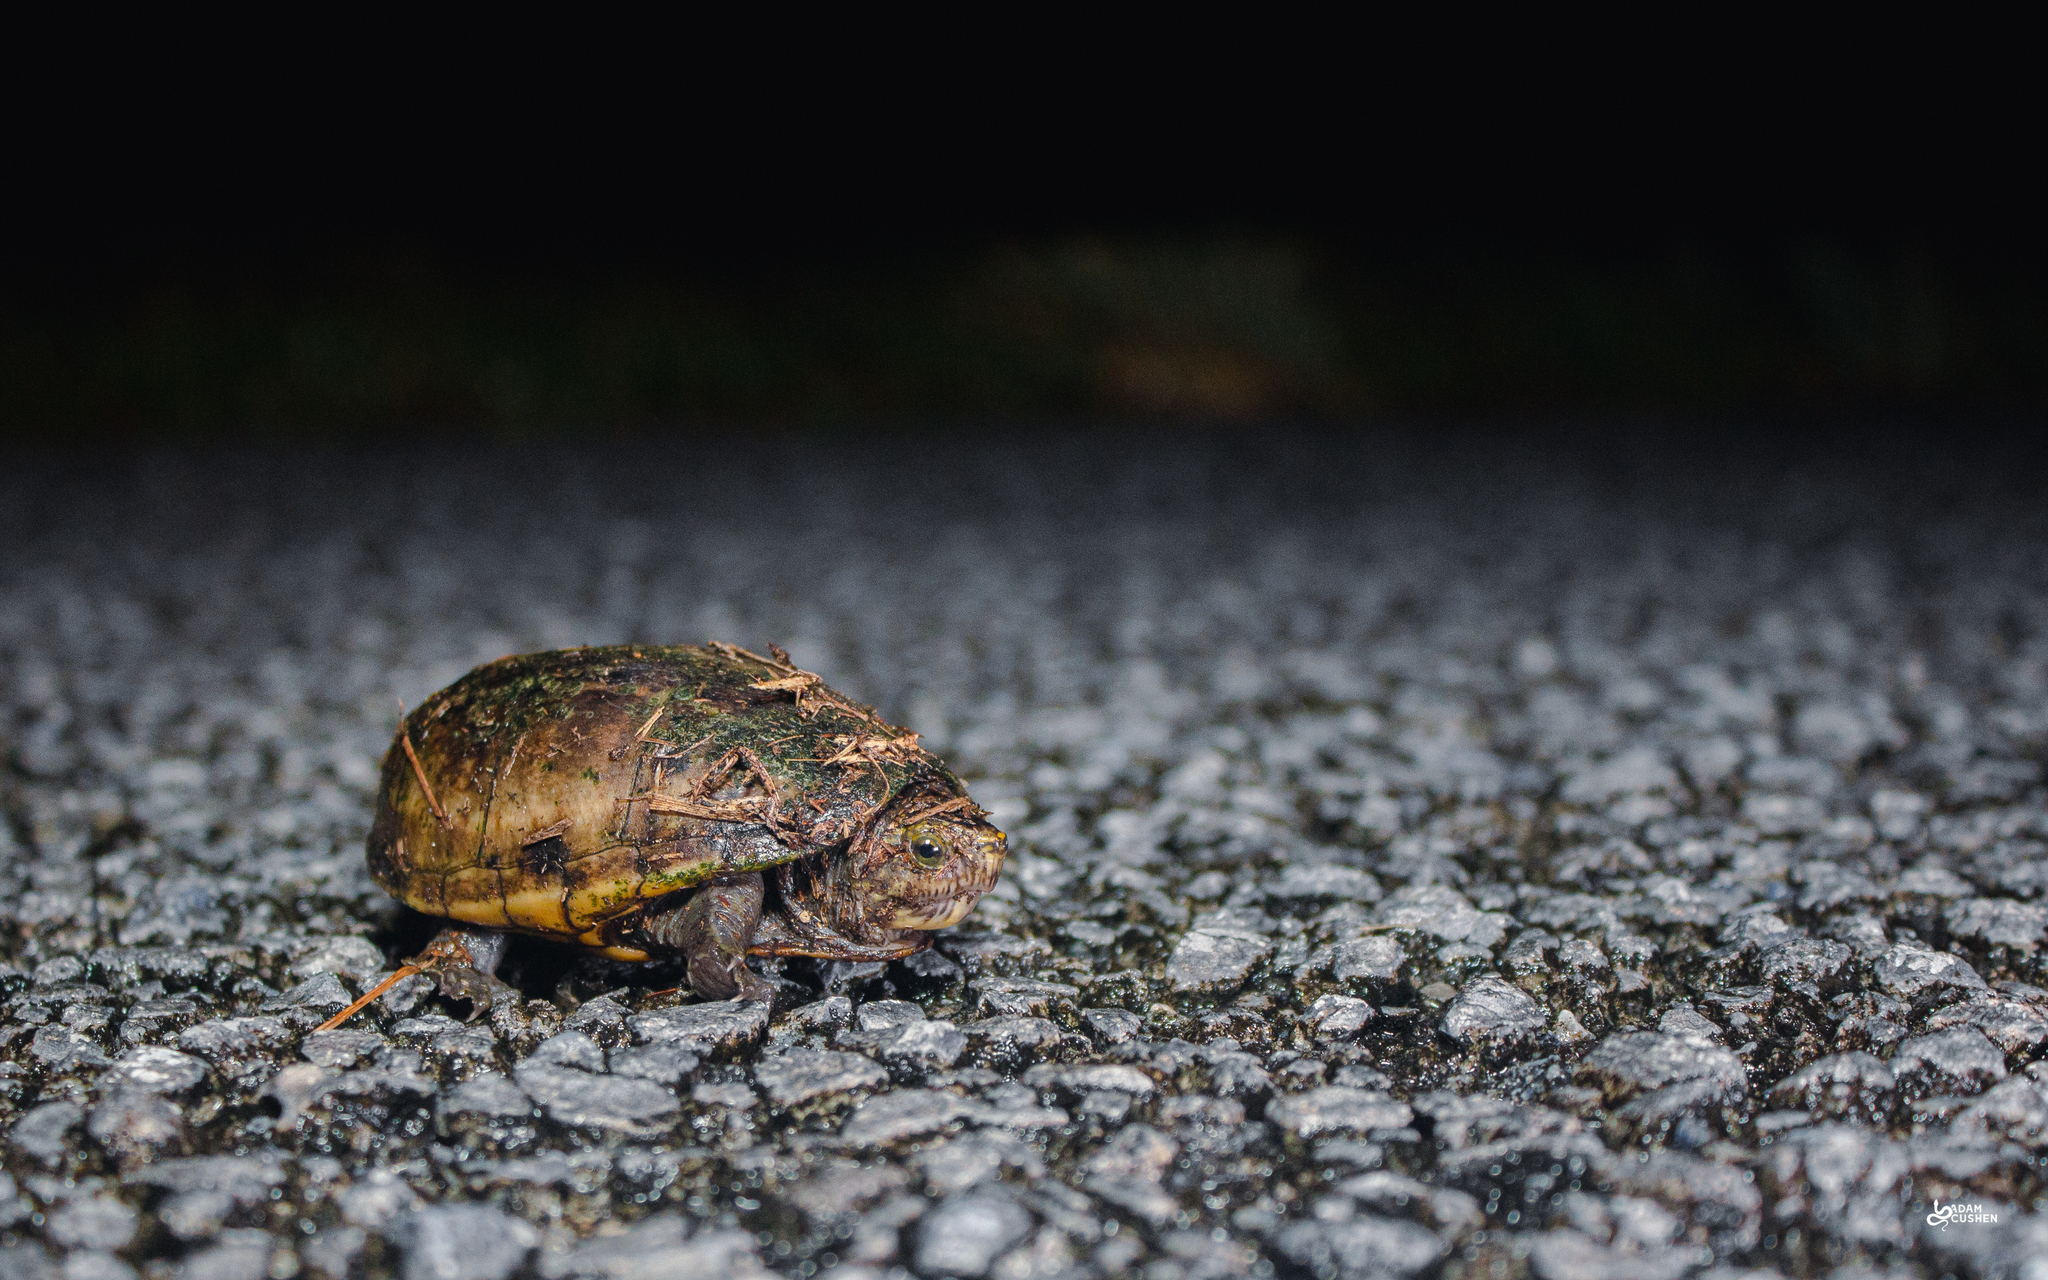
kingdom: Animalia
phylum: Chordata
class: Testudines
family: Kinosternidae
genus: Kinosternon
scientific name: Kinosternon baurii
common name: Striped mud turtle
